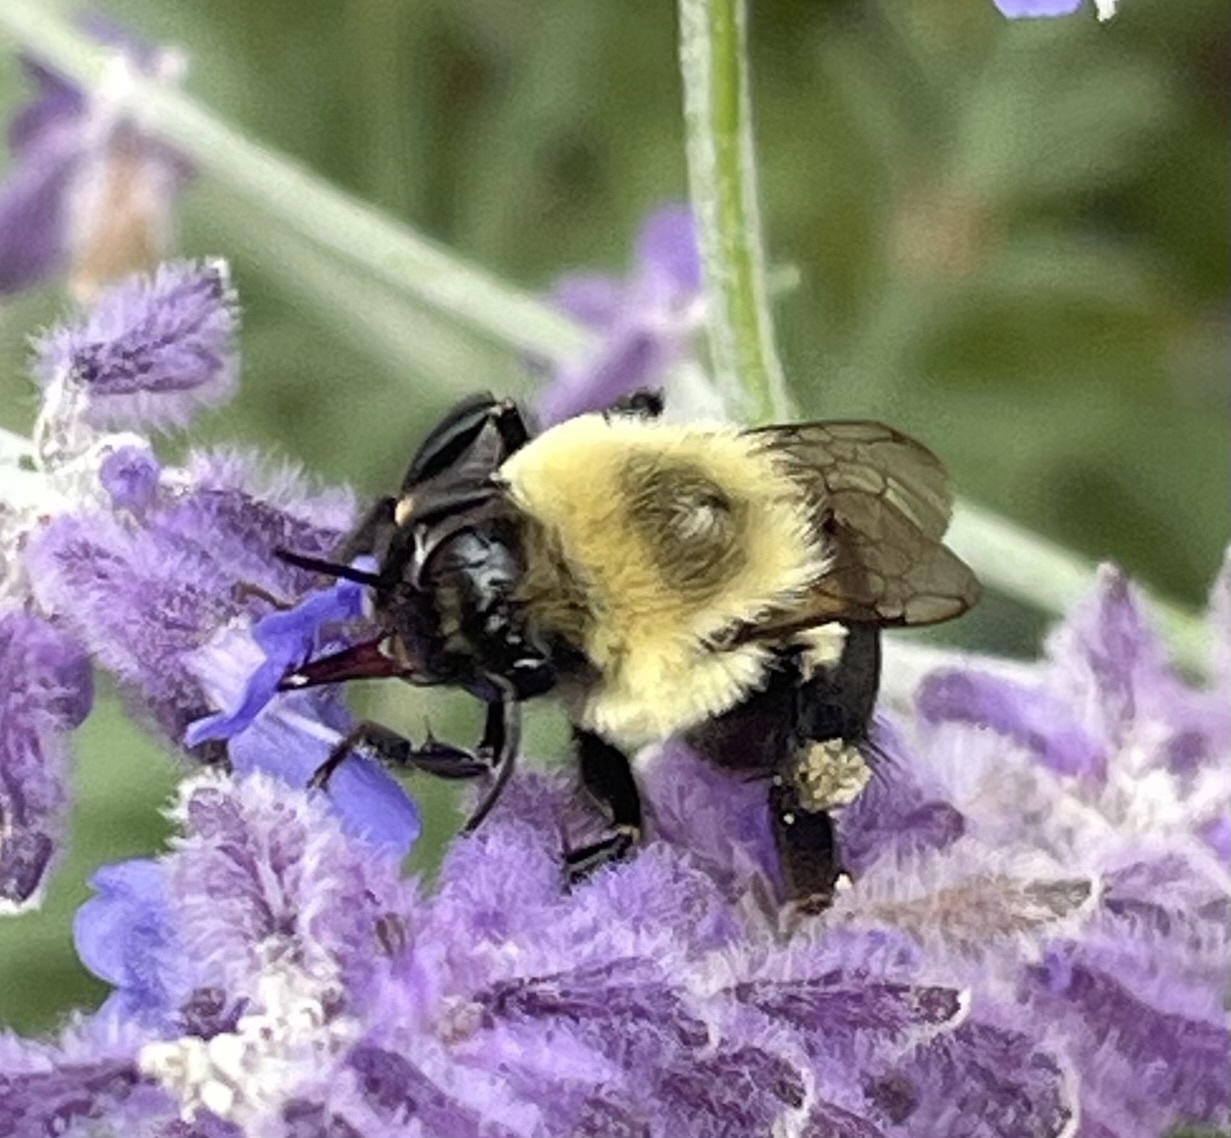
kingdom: Animalia
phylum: Arthropoda
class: Insecta
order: Hymenoptera
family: Apidae
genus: Bombus
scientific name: Bombus impatiens
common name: Common eastern bumble bee
